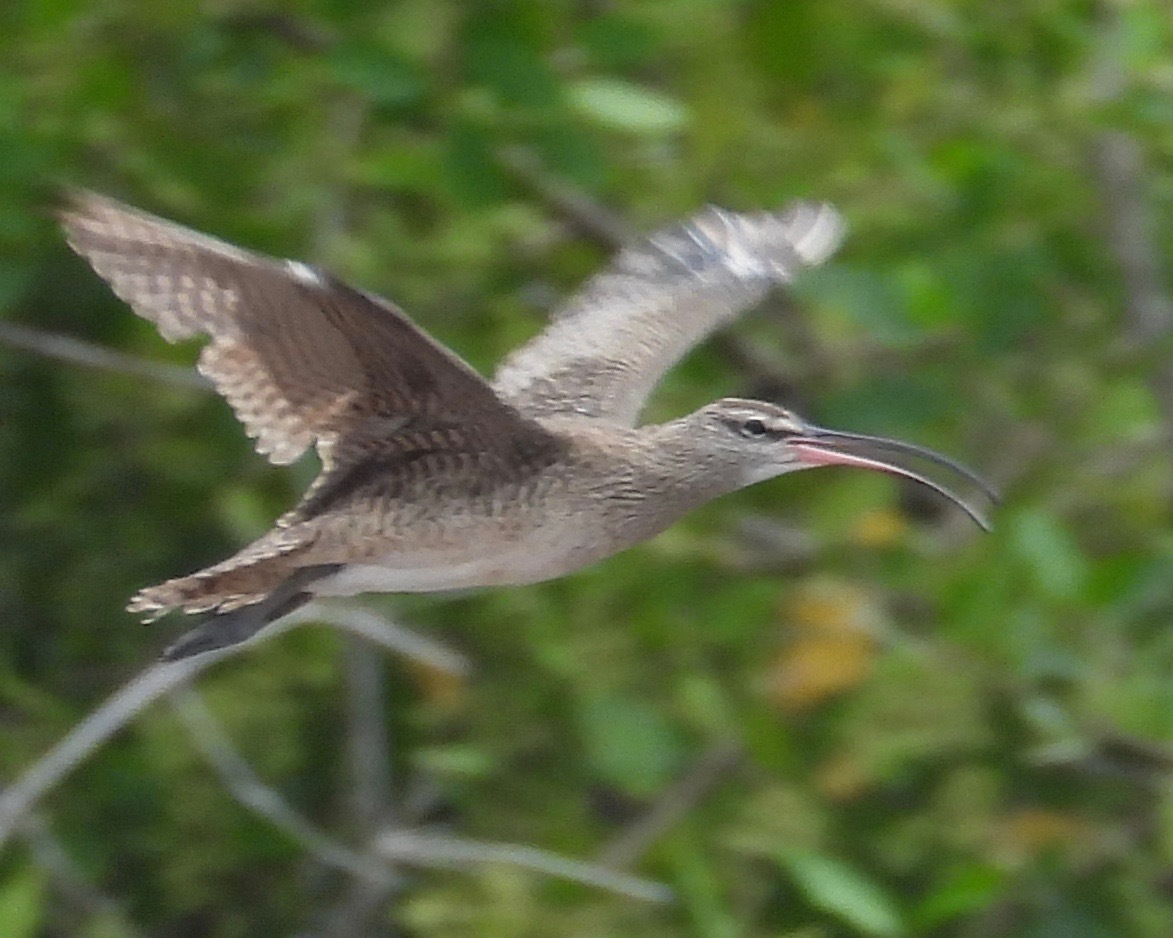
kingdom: Animalia
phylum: Chordata
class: Aves
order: Charadriiformes
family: Scolopacidae
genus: Numenius
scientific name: Numenius phaeopus
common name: Whimbrel
